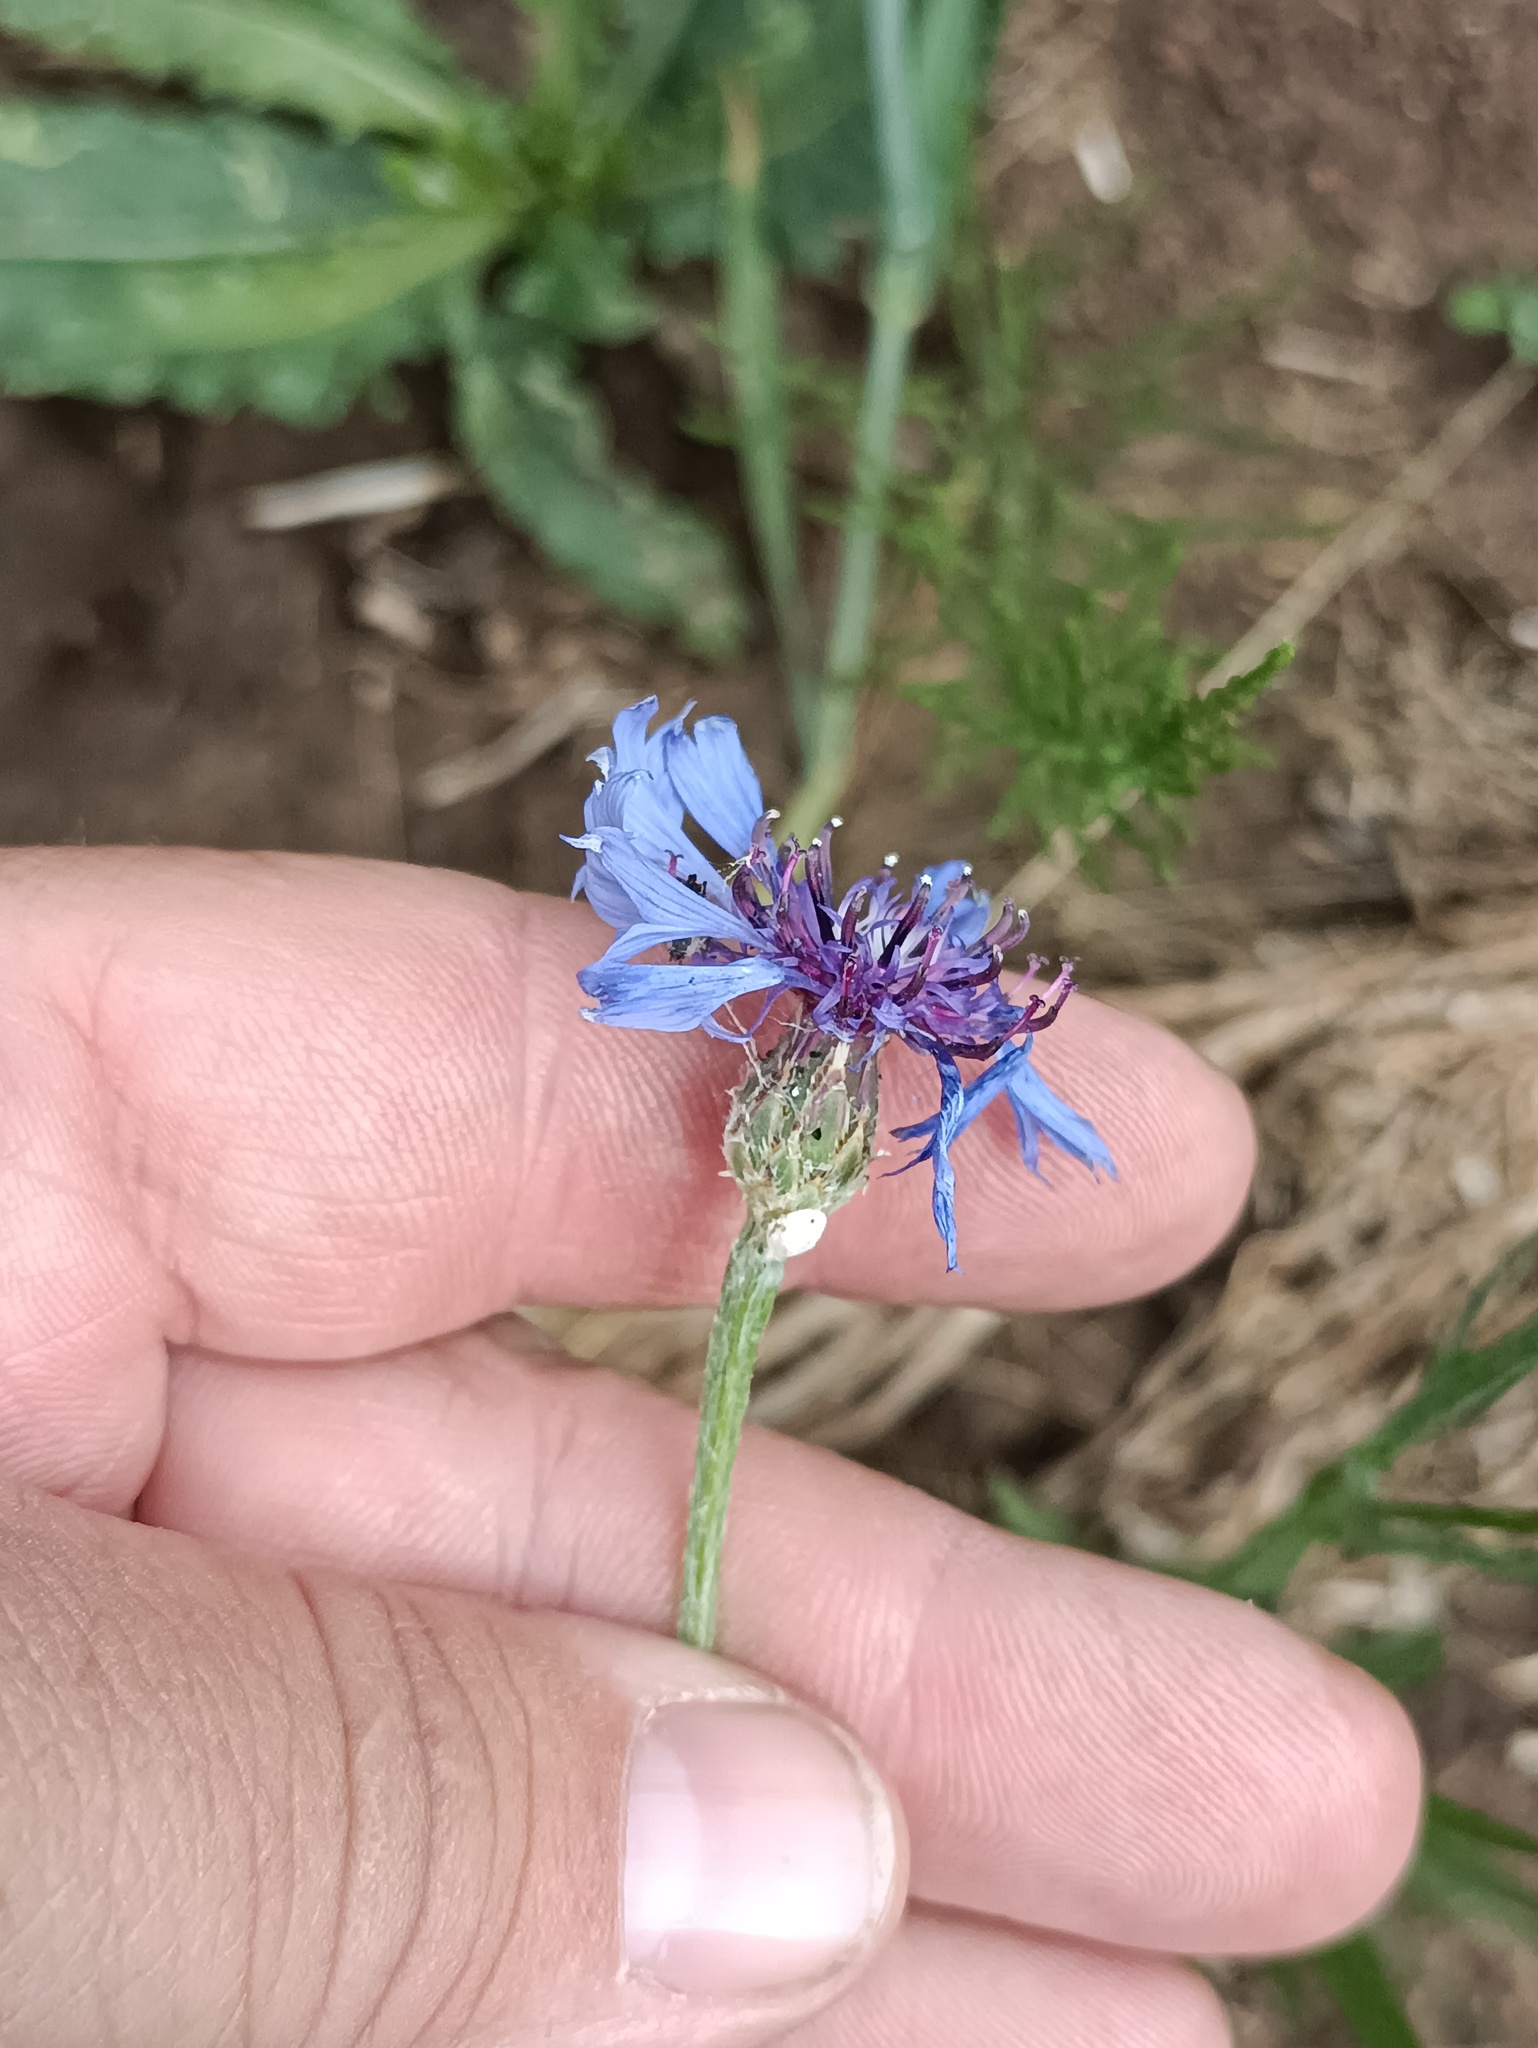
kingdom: Plantae
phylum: Tracheophyta
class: Magnoliopsida
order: Asterales
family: Asteraceae
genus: Centaurea
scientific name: Centaurea cyanus
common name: Cornflower
